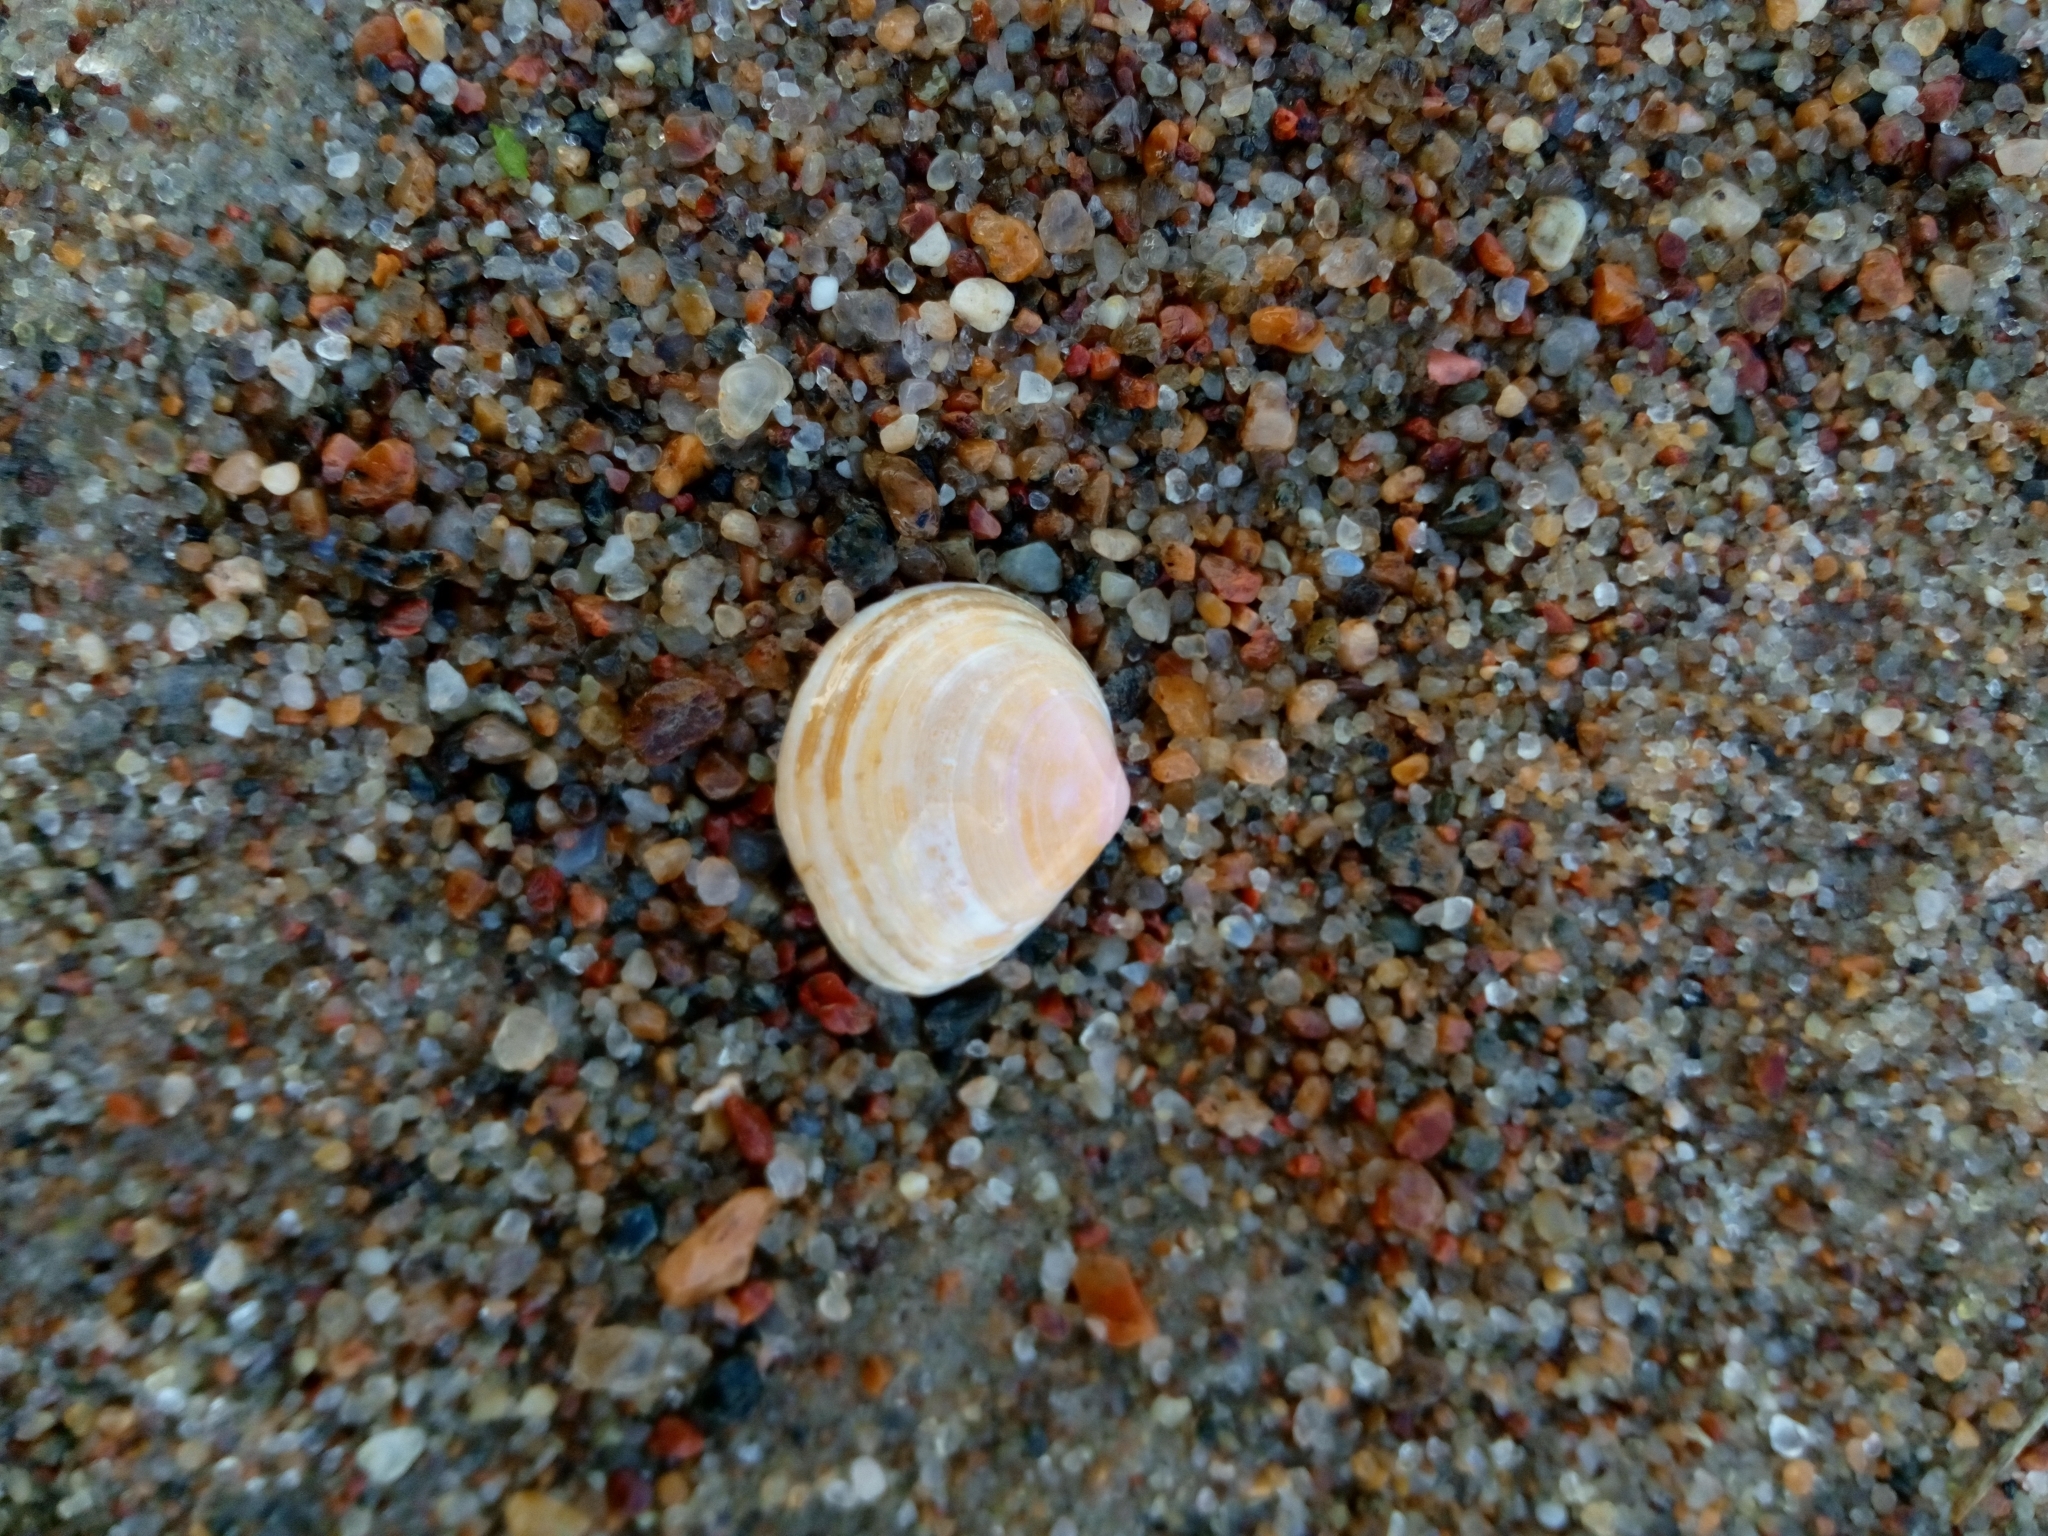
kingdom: Animalia
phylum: Mollusca
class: Bivalvia
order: Cardiida
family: Tellinidae
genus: Macoma
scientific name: Macoma balthica
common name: Baltic tellin
